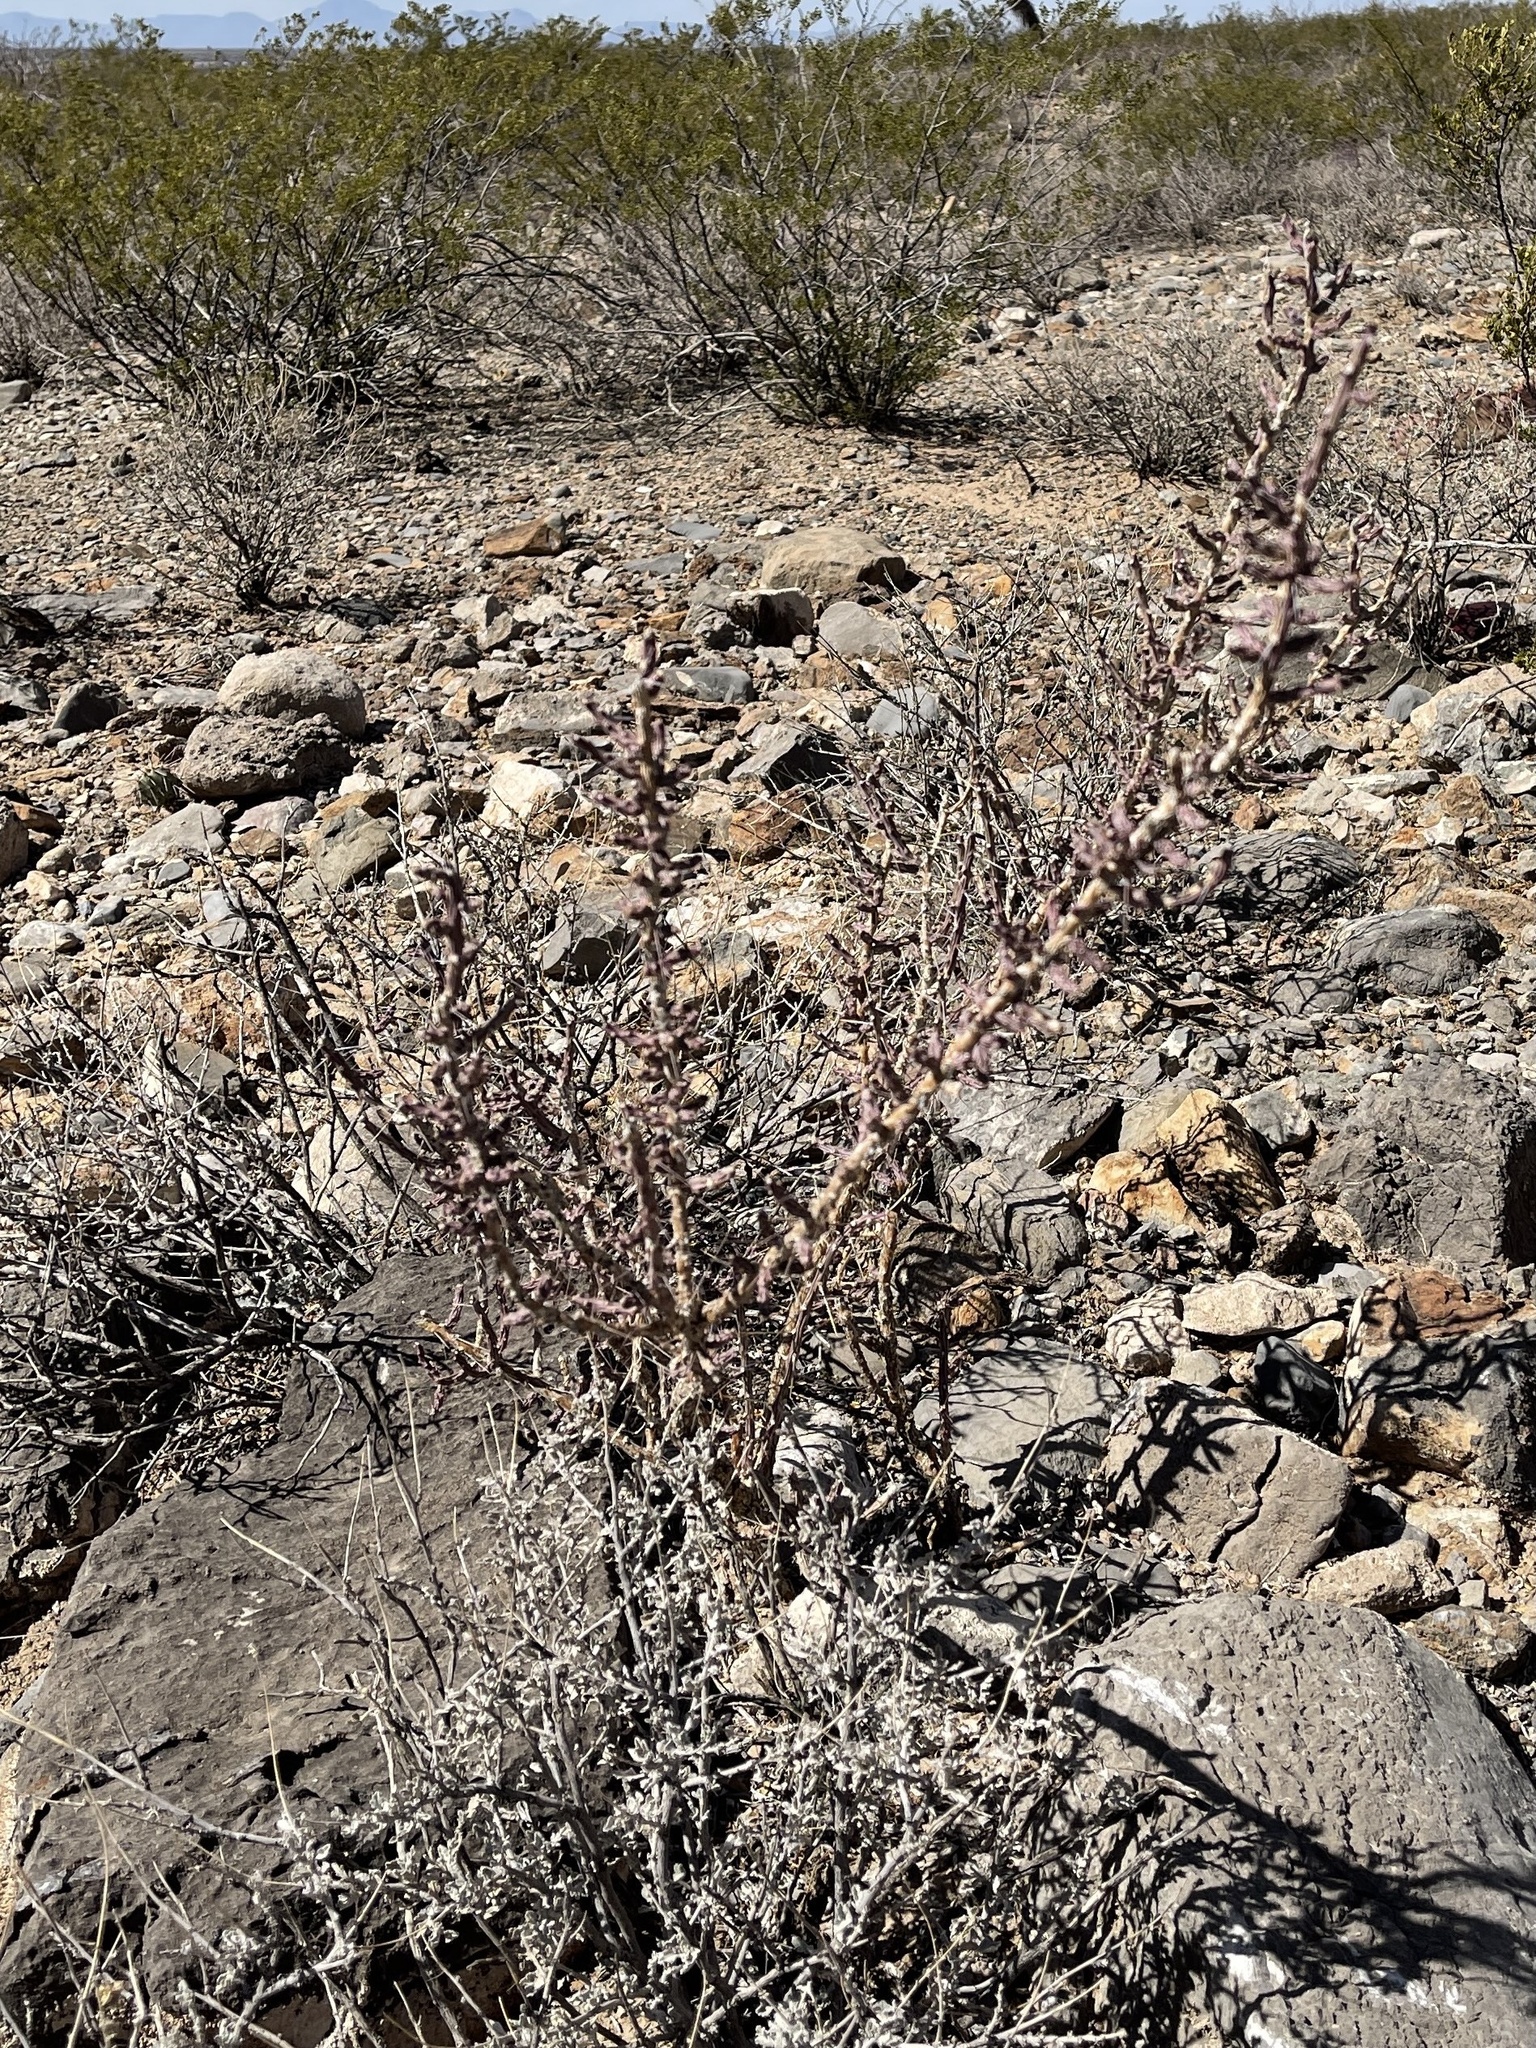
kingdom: Plantae
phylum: Tracheophyta
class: Magnoliopsida
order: Caryophyllales
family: Cactaceae
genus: Cylindropuntia
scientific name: Cylindropuntia leptocaulis
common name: Christmas cactus
